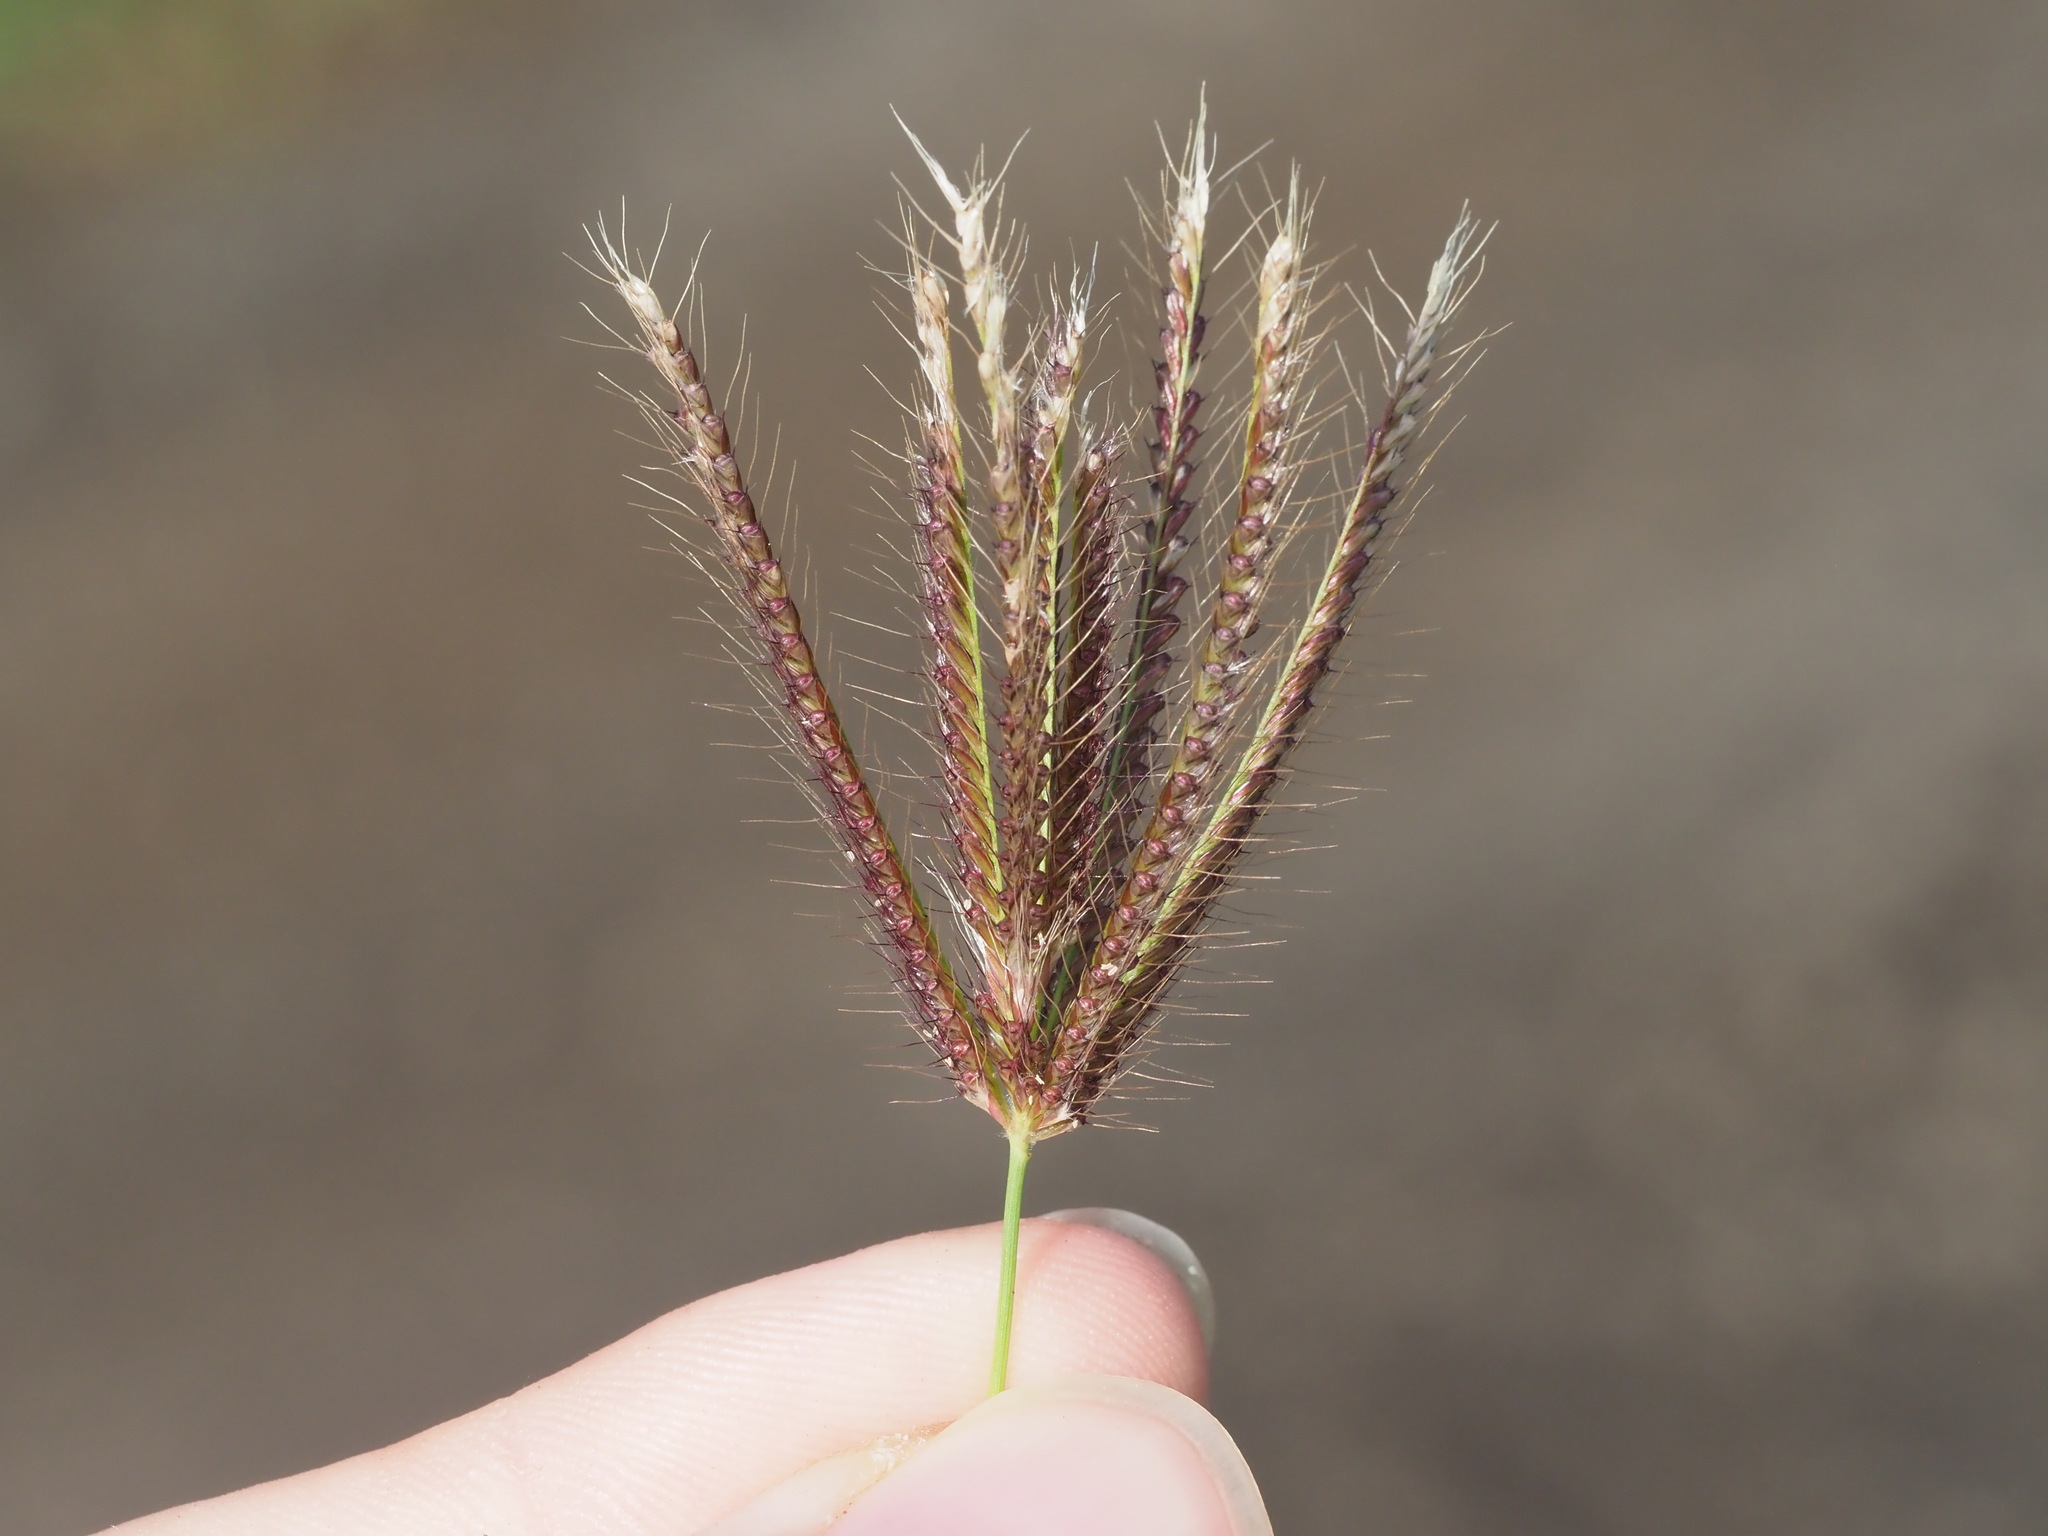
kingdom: Plantae
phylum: Tracheophyta
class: Liliopsida
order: Poales
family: Poaceae
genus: Chloris
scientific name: Chloris barbata
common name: Swollen fingergrass
